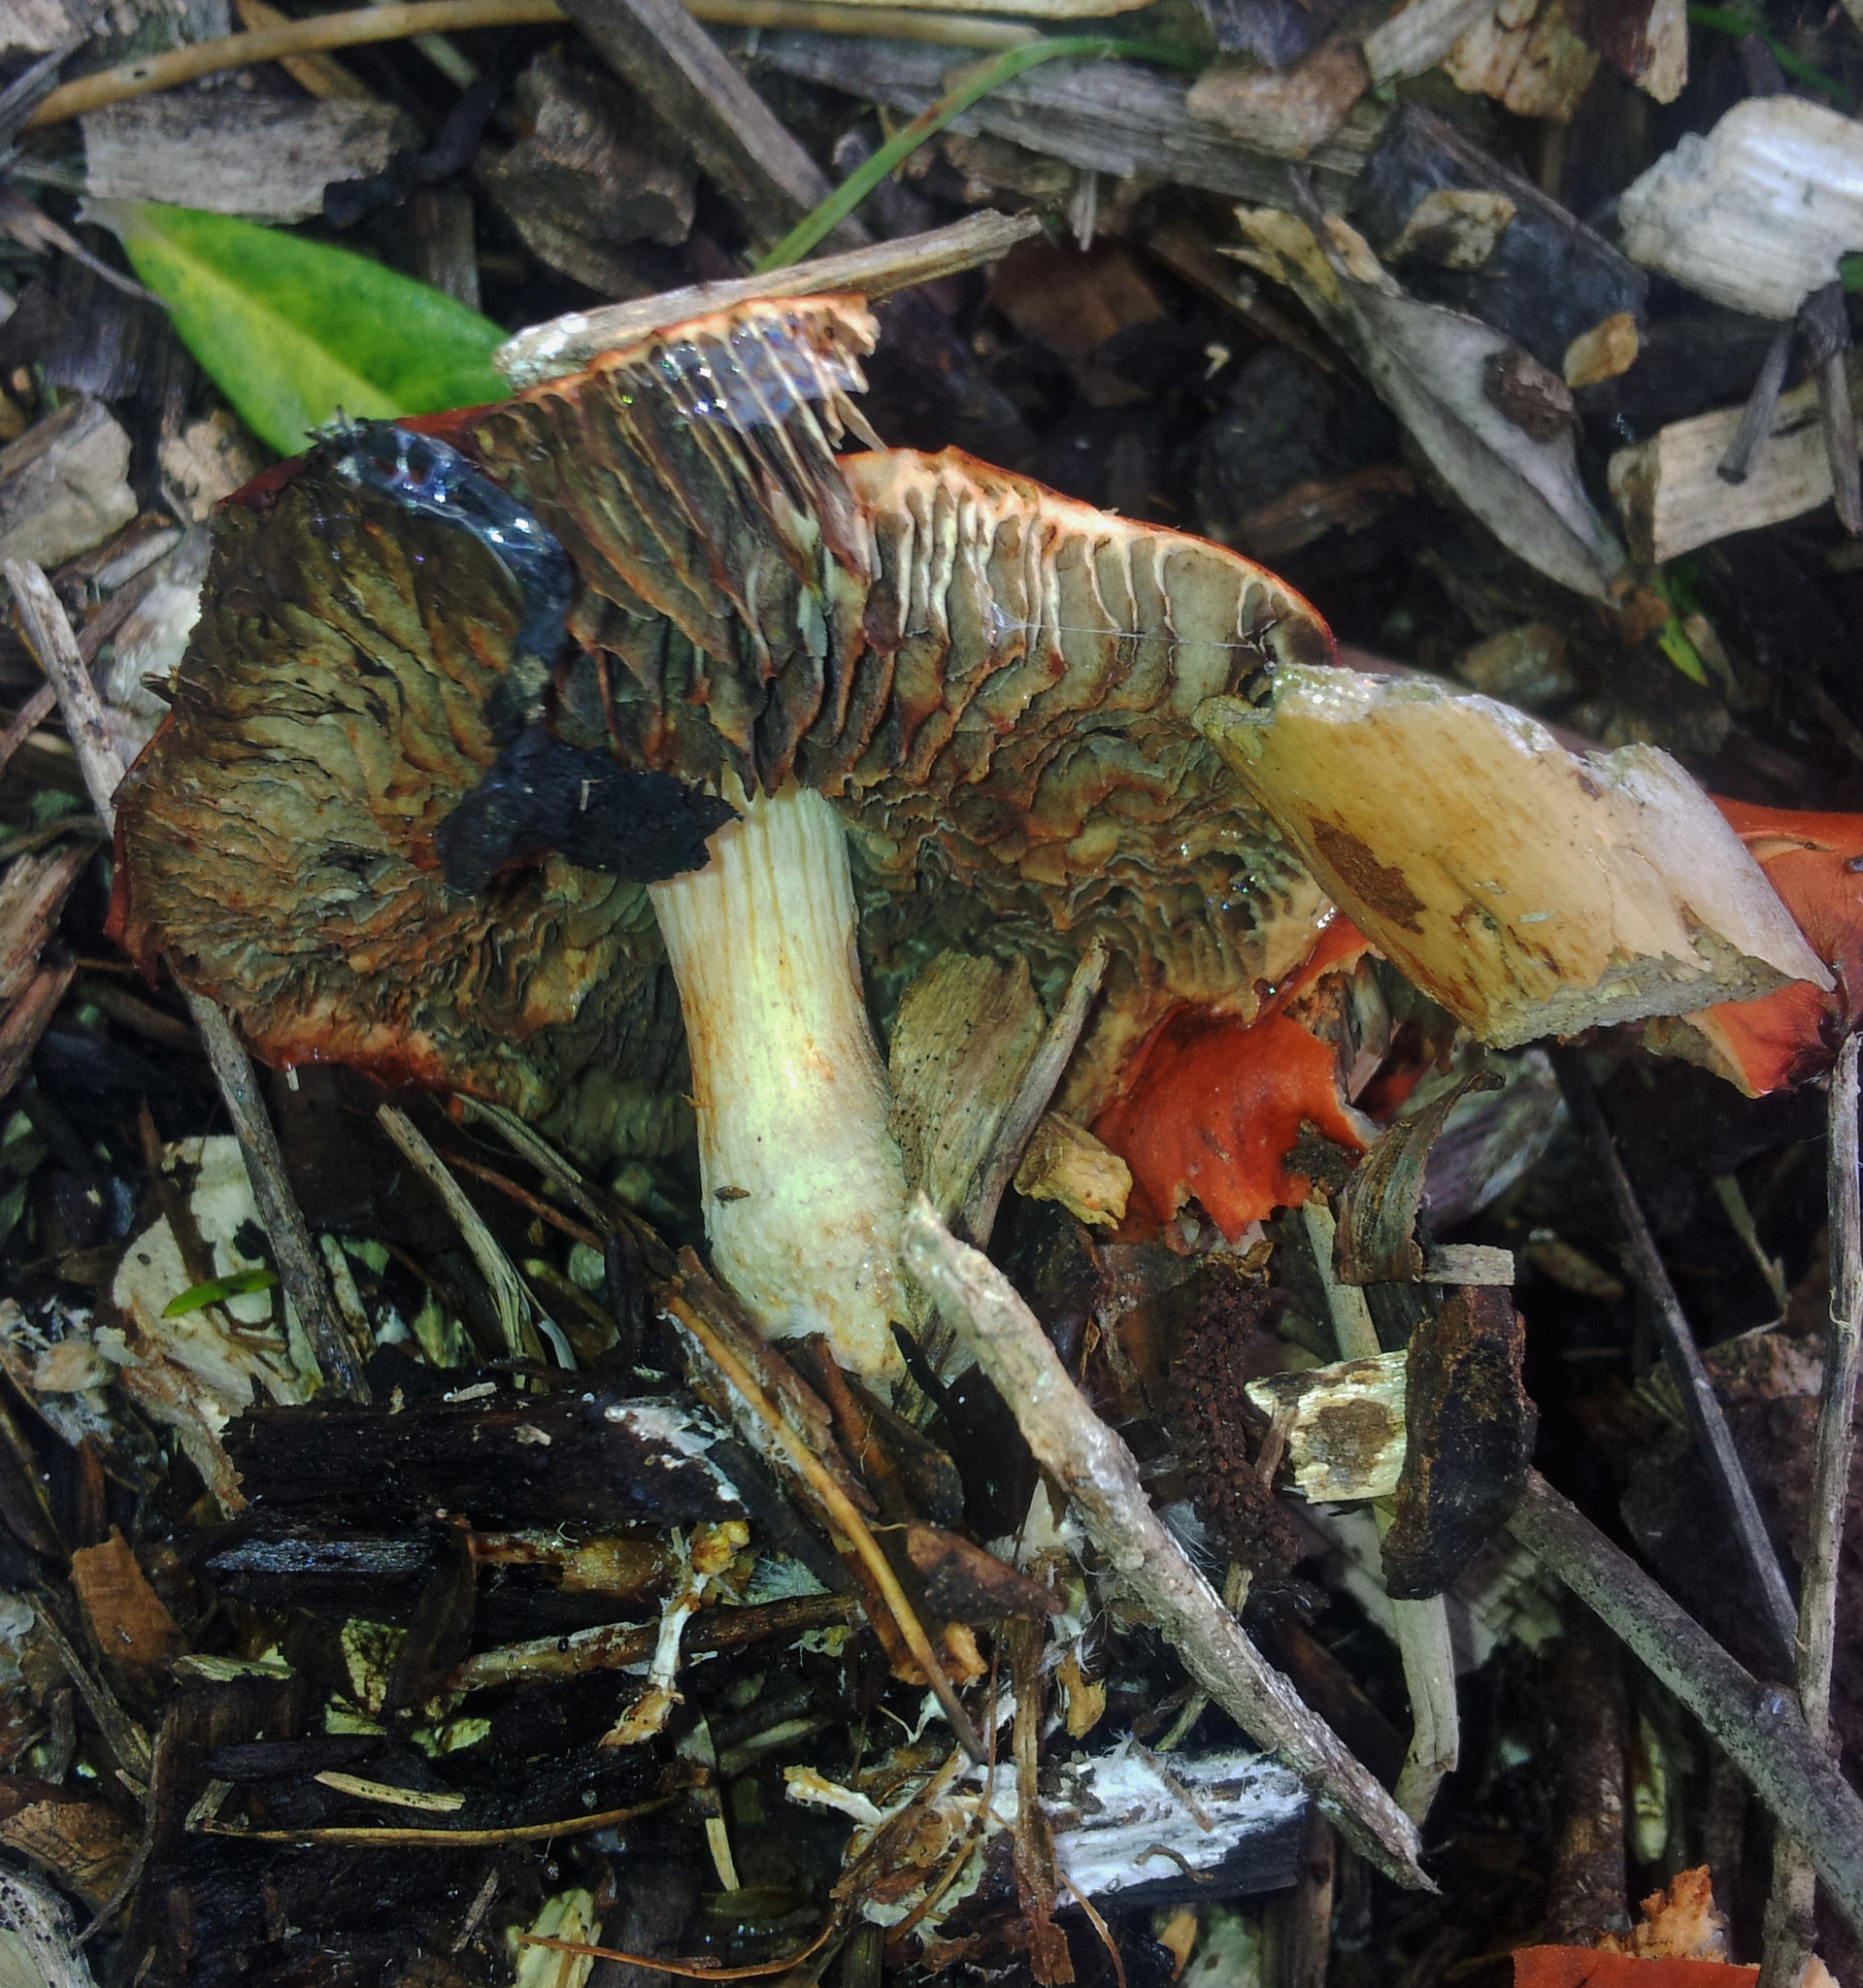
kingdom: Fungi
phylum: Basidiomycota
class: Agaricomycetes
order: Agaricales
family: Strophariaceae
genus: Leratiomyces
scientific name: Leratiomyces ceres
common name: Redlead roundhead
